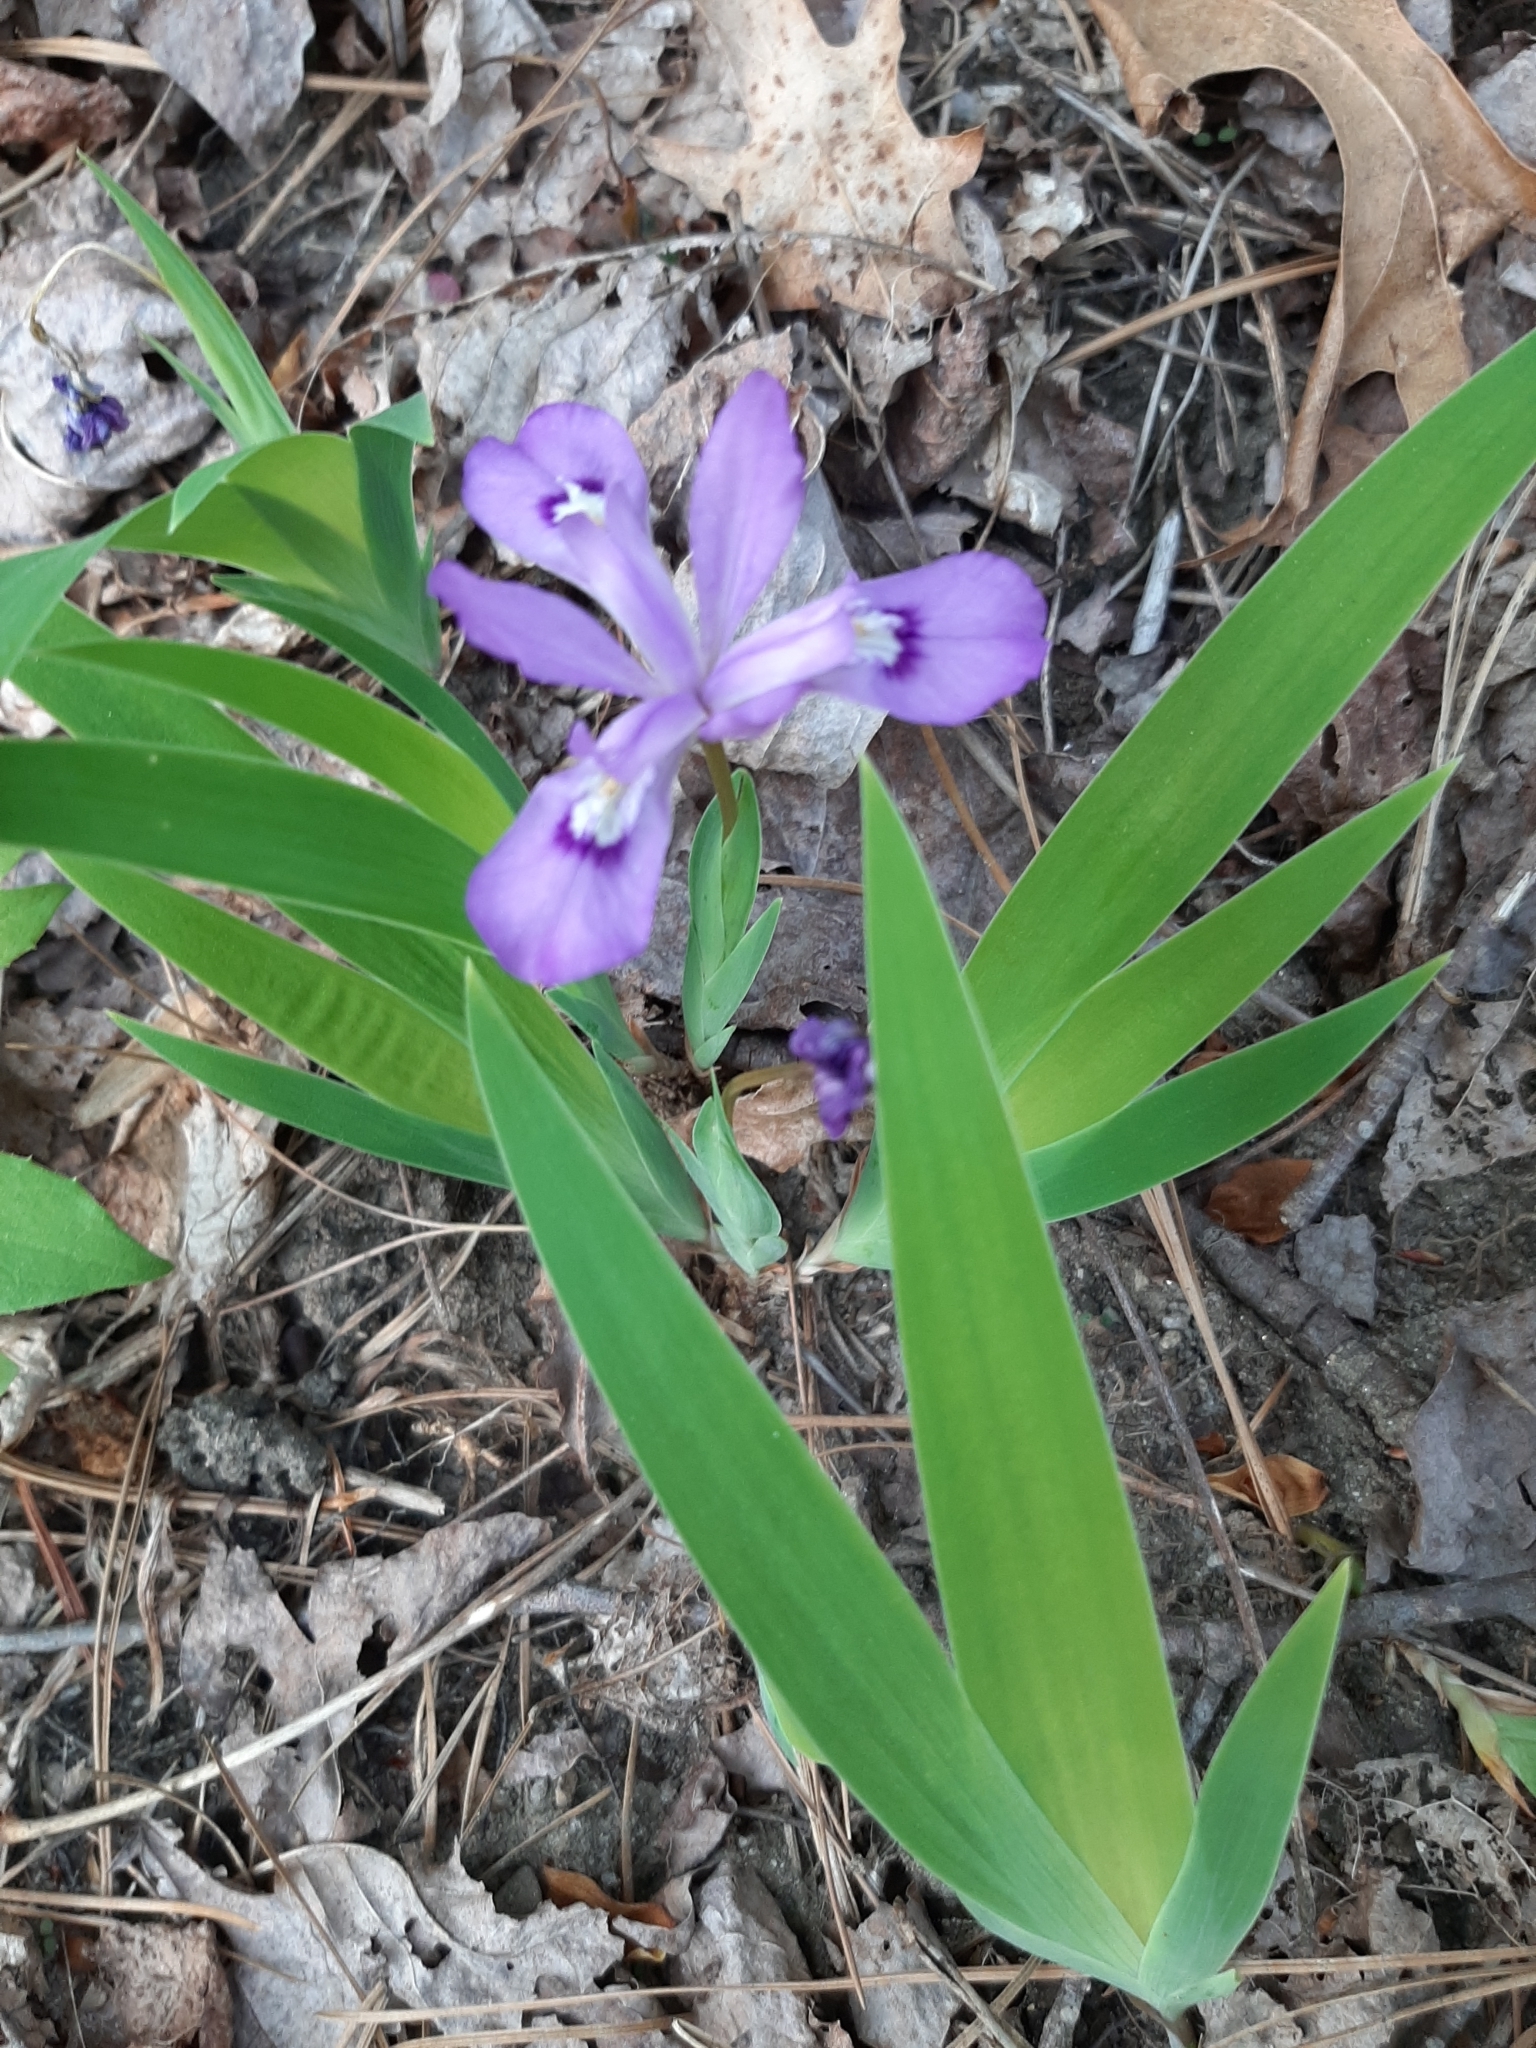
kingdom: Plantae
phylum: Tracheophyta
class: Liliopsida
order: Asparagales
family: Iridaceae
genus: Iris
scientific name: Iris cristata
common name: Crested iris
